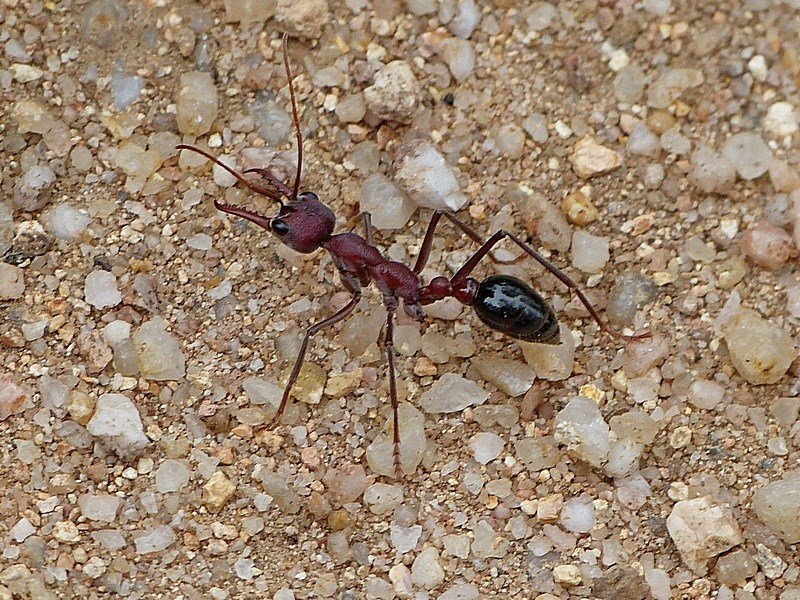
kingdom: Animalia
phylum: Arthropoda
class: Insecta
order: Hymenoptera
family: Formicidae
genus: Myrmecia
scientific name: Myrmecia simillima
